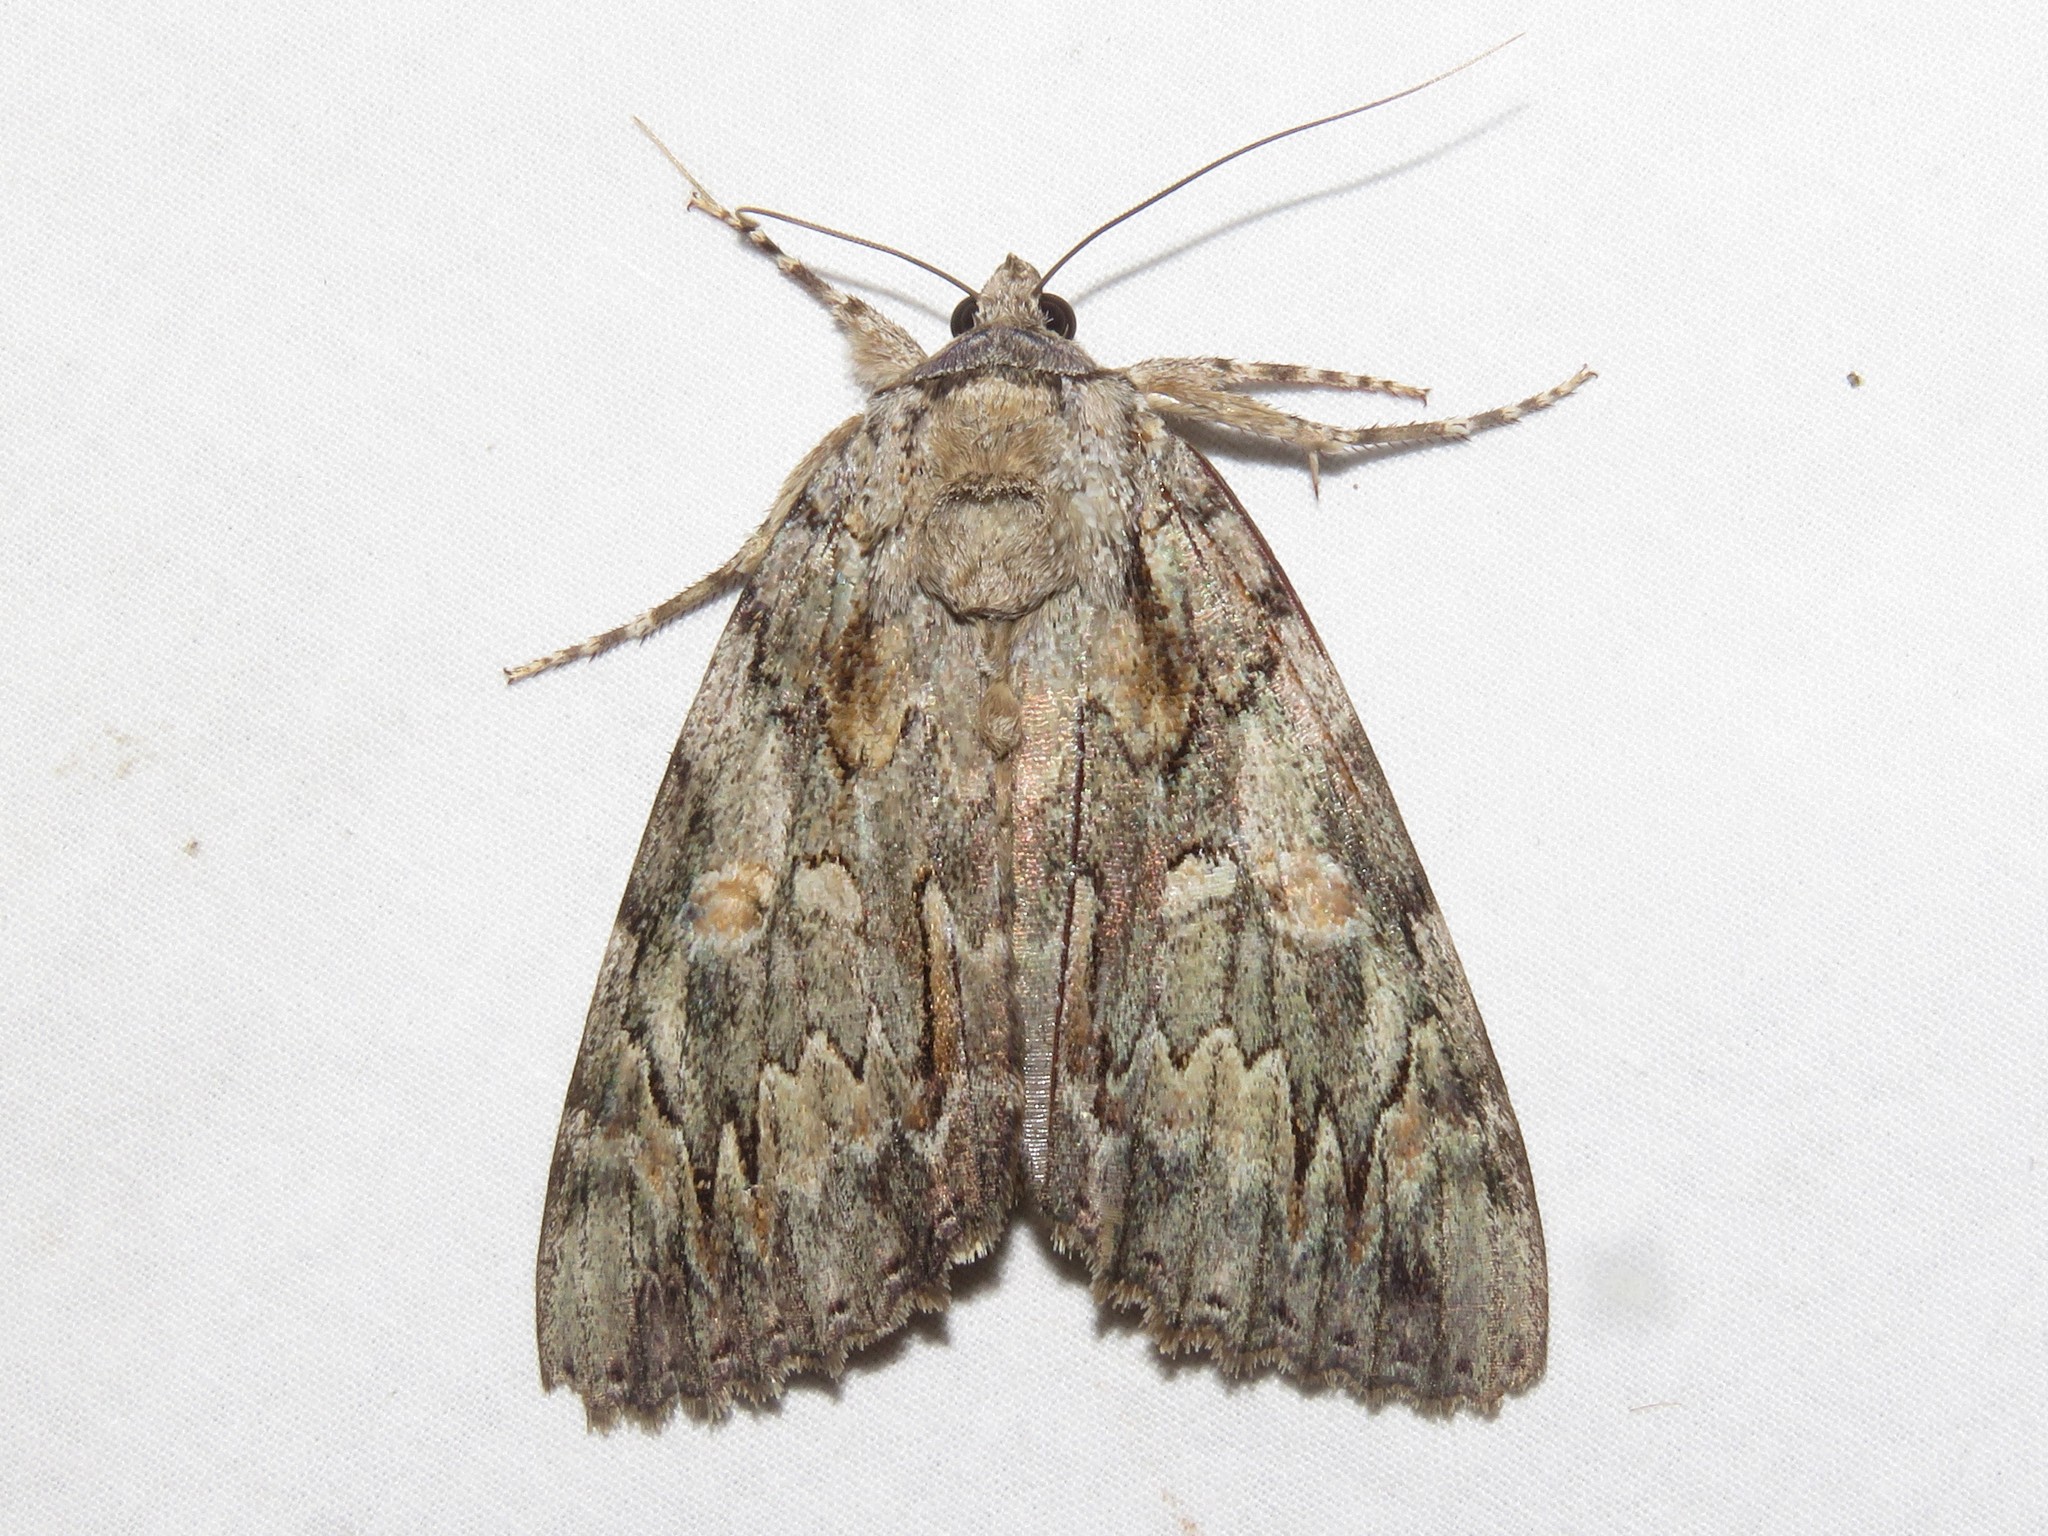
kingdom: Animalia
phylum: Arthropoda
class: Insecta
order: Lepidoptera
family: Erebidae
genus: Catocala
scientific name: Catocala neogama
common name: Bride underwing
